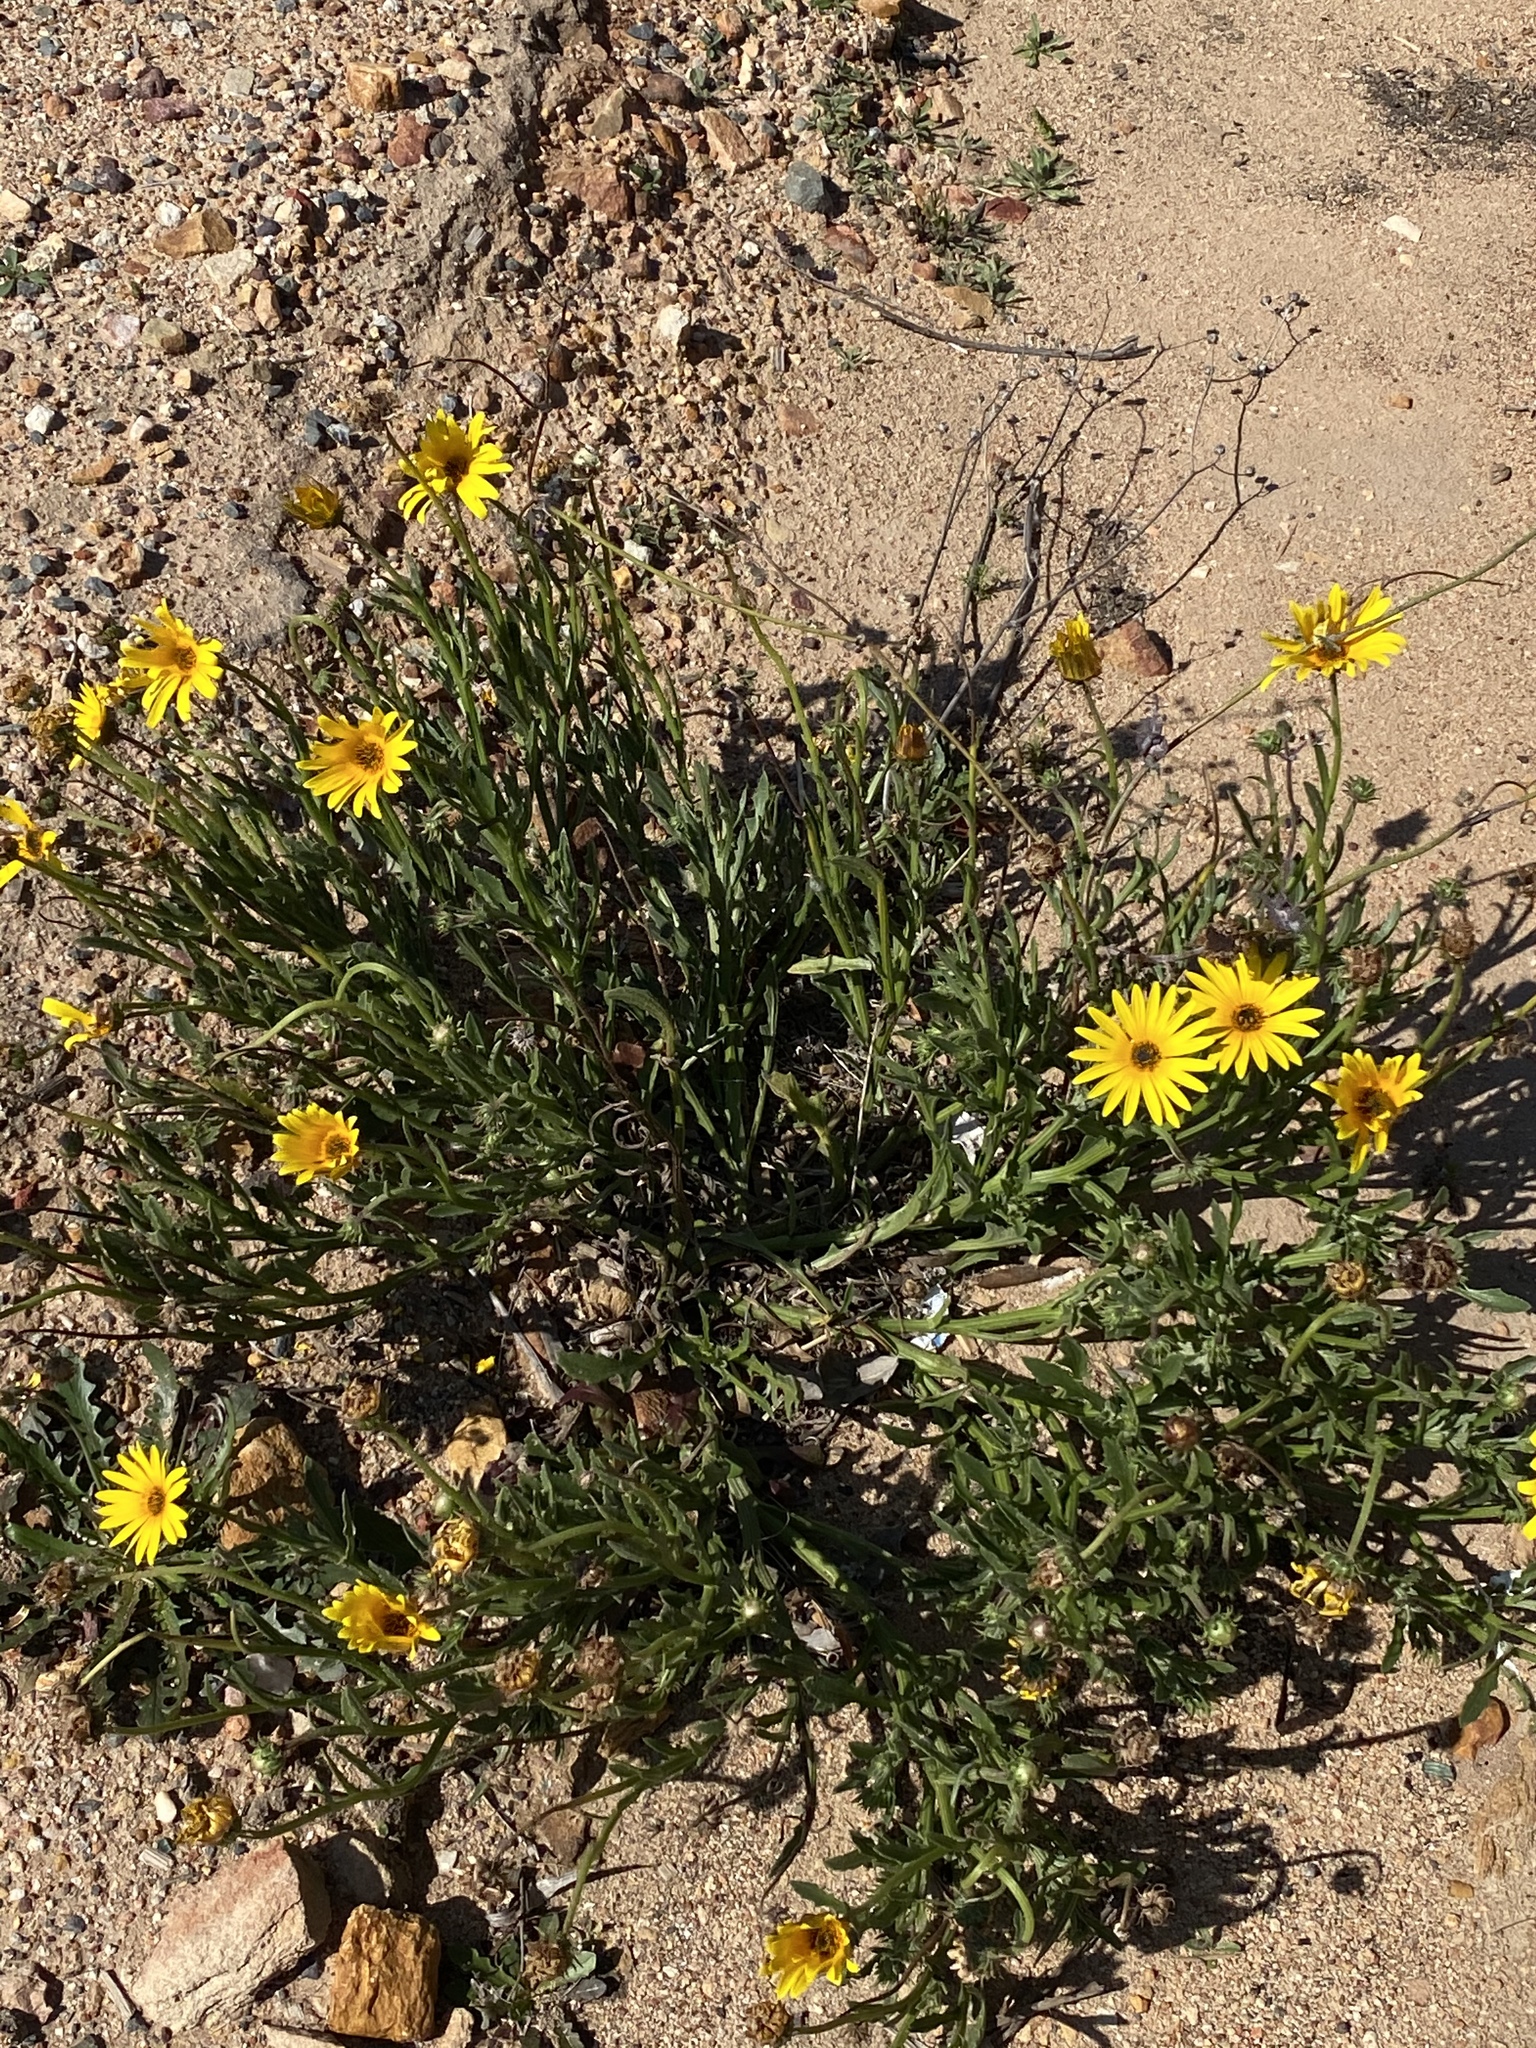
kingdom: Plantae
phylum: Tracheophyta
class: Magnoliopsida
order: Asterales
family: Asteraceae
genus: Arctotis
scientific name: Arctotis lanceolata
